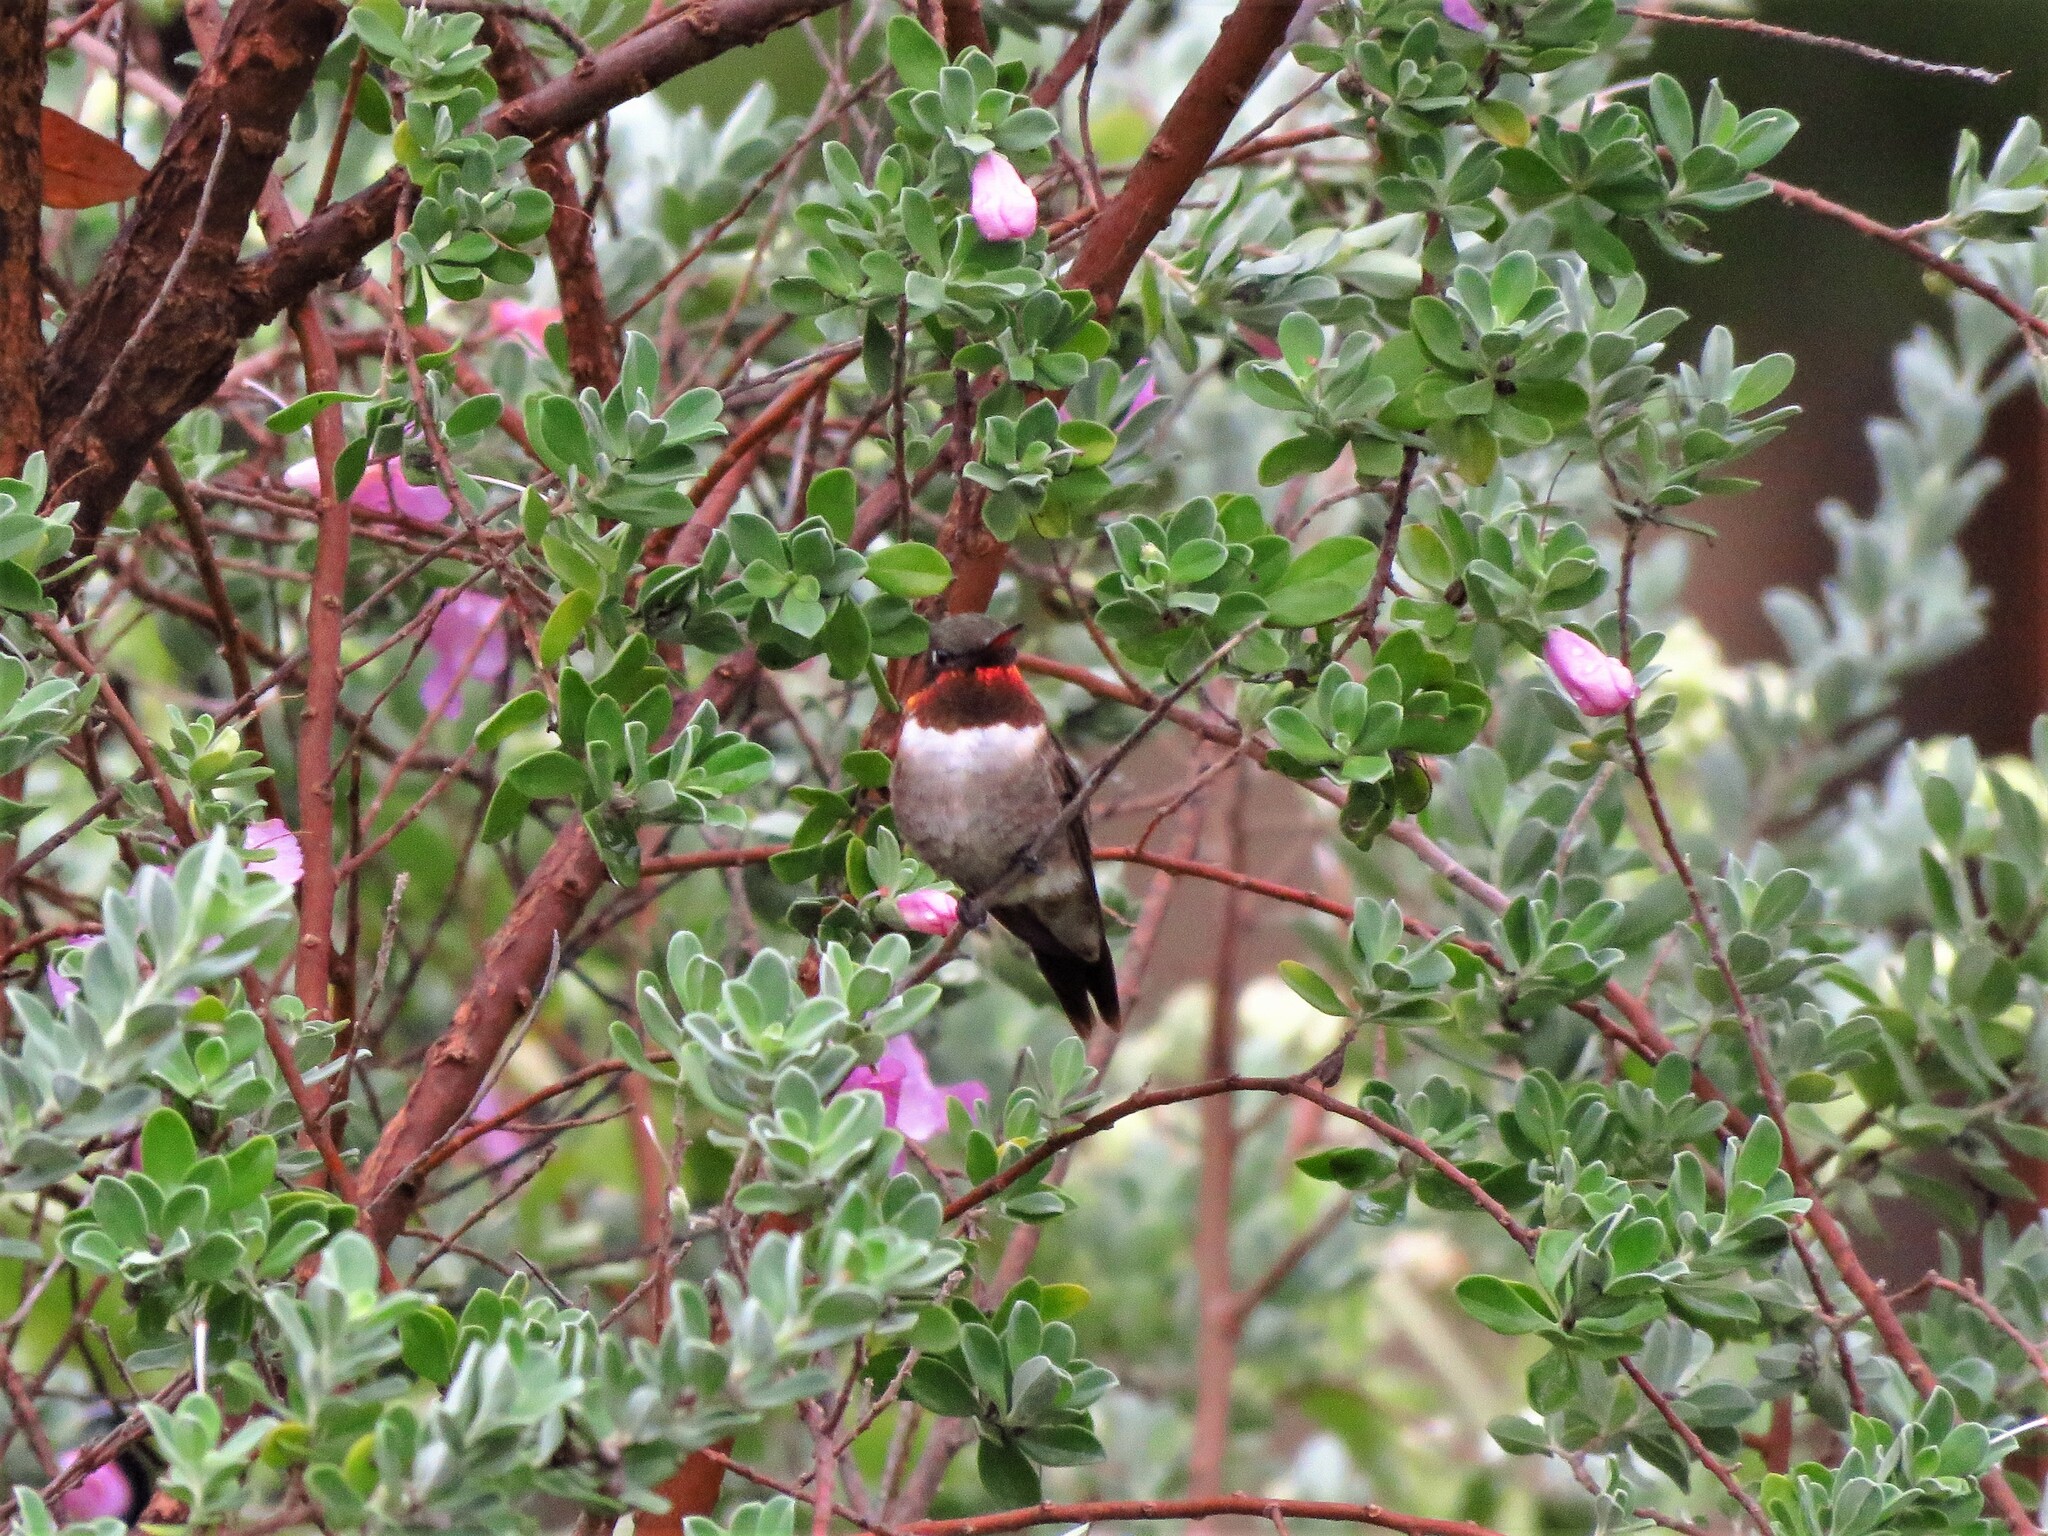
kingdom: Animalia
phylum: Chordata
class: Aves
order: Apodiformes
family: Trochilidae
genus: Archilochus
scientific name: Archilochus colubris
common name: Ruby-throated hummingbird
